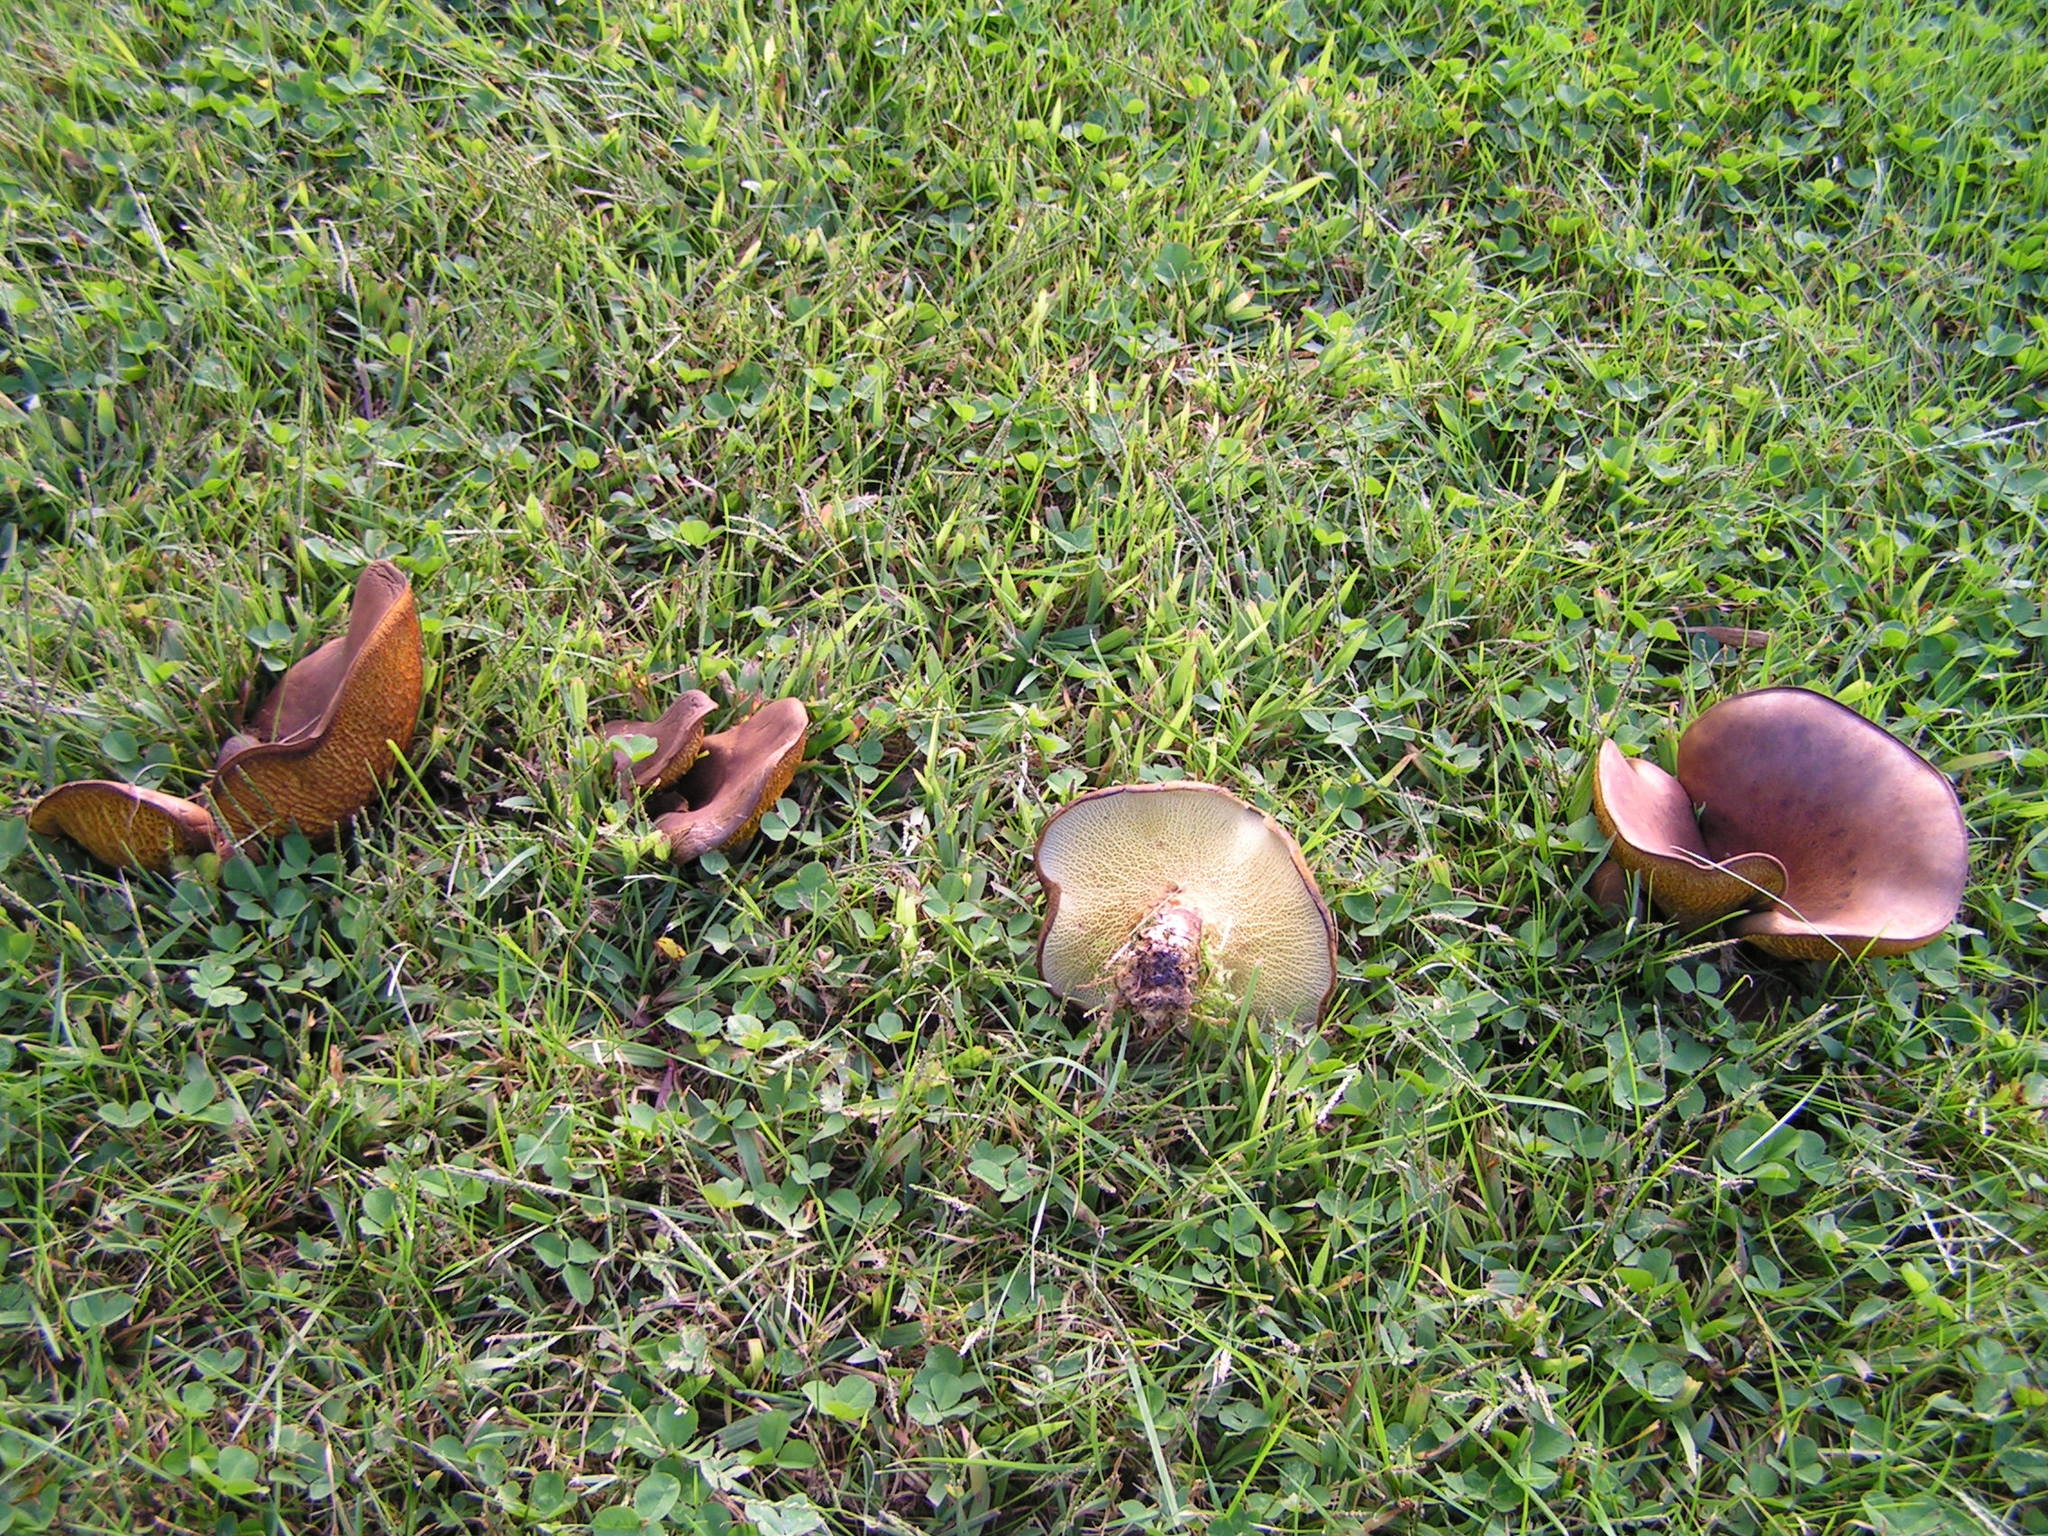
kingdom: Fungi
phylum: Basidiomycota
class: Agaricomycetes
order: Boletales
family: Boletinellaceae
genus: Boletinellus
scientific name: Boletinellus merulioides
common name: Ash tree bolete
